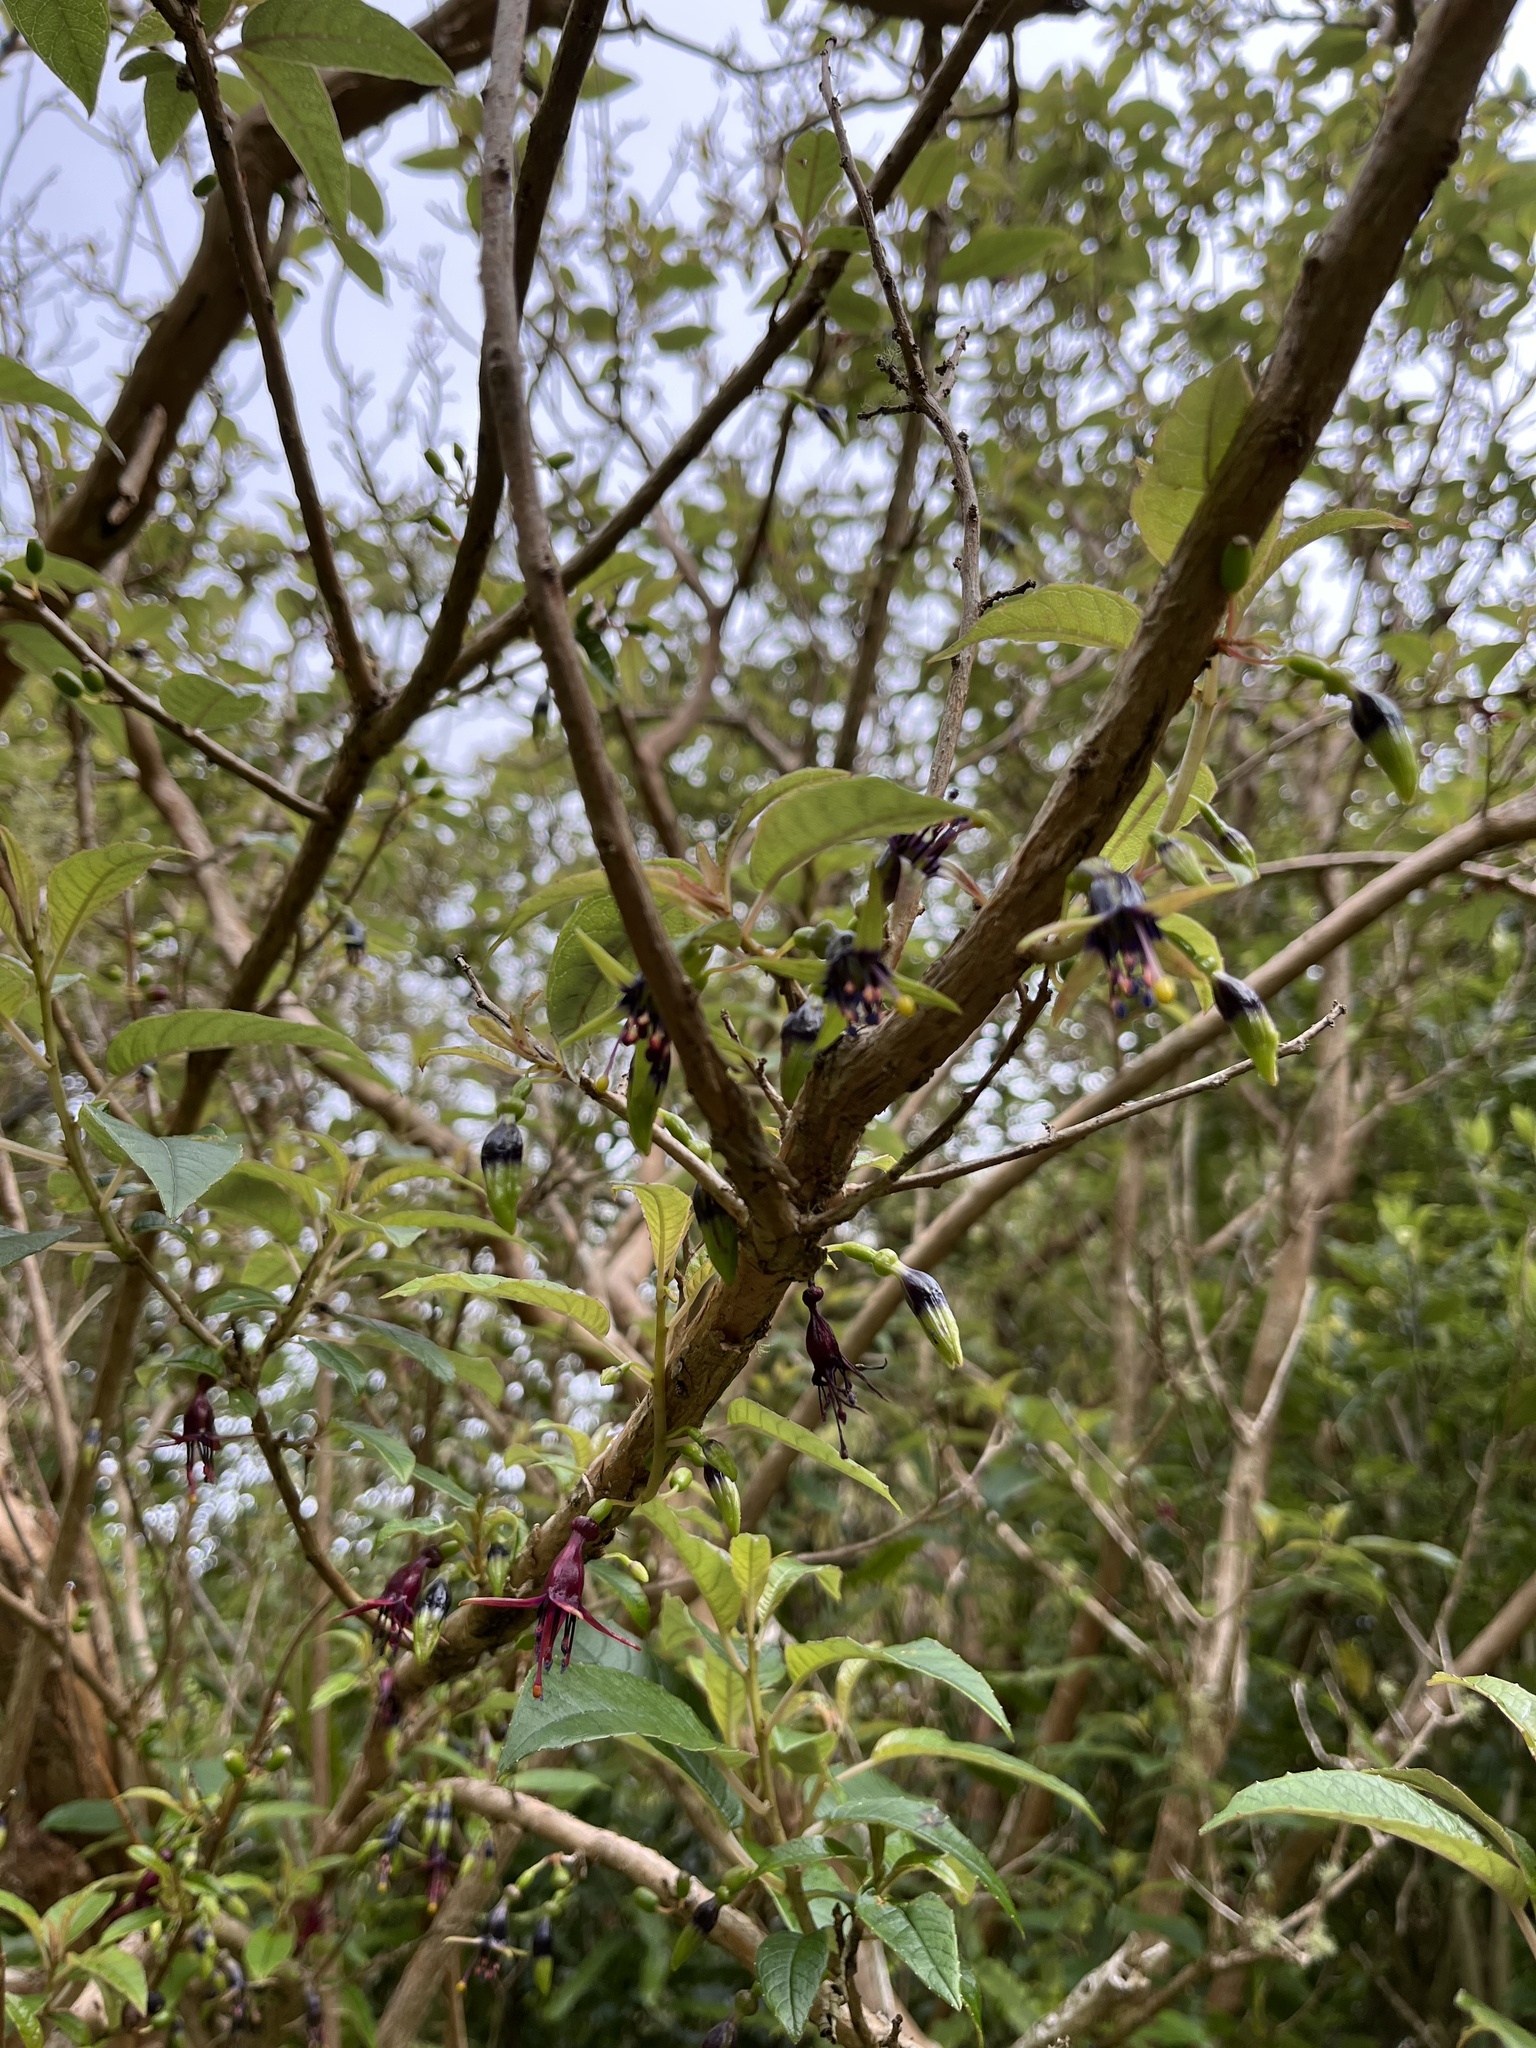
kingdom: Plantae
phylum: Tracheophyta
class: Magnoliopsida
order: Myrtales
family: Onagraceae
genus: Fuchsia
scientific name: Fuchsia excorticata
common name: Tree fuchsia
